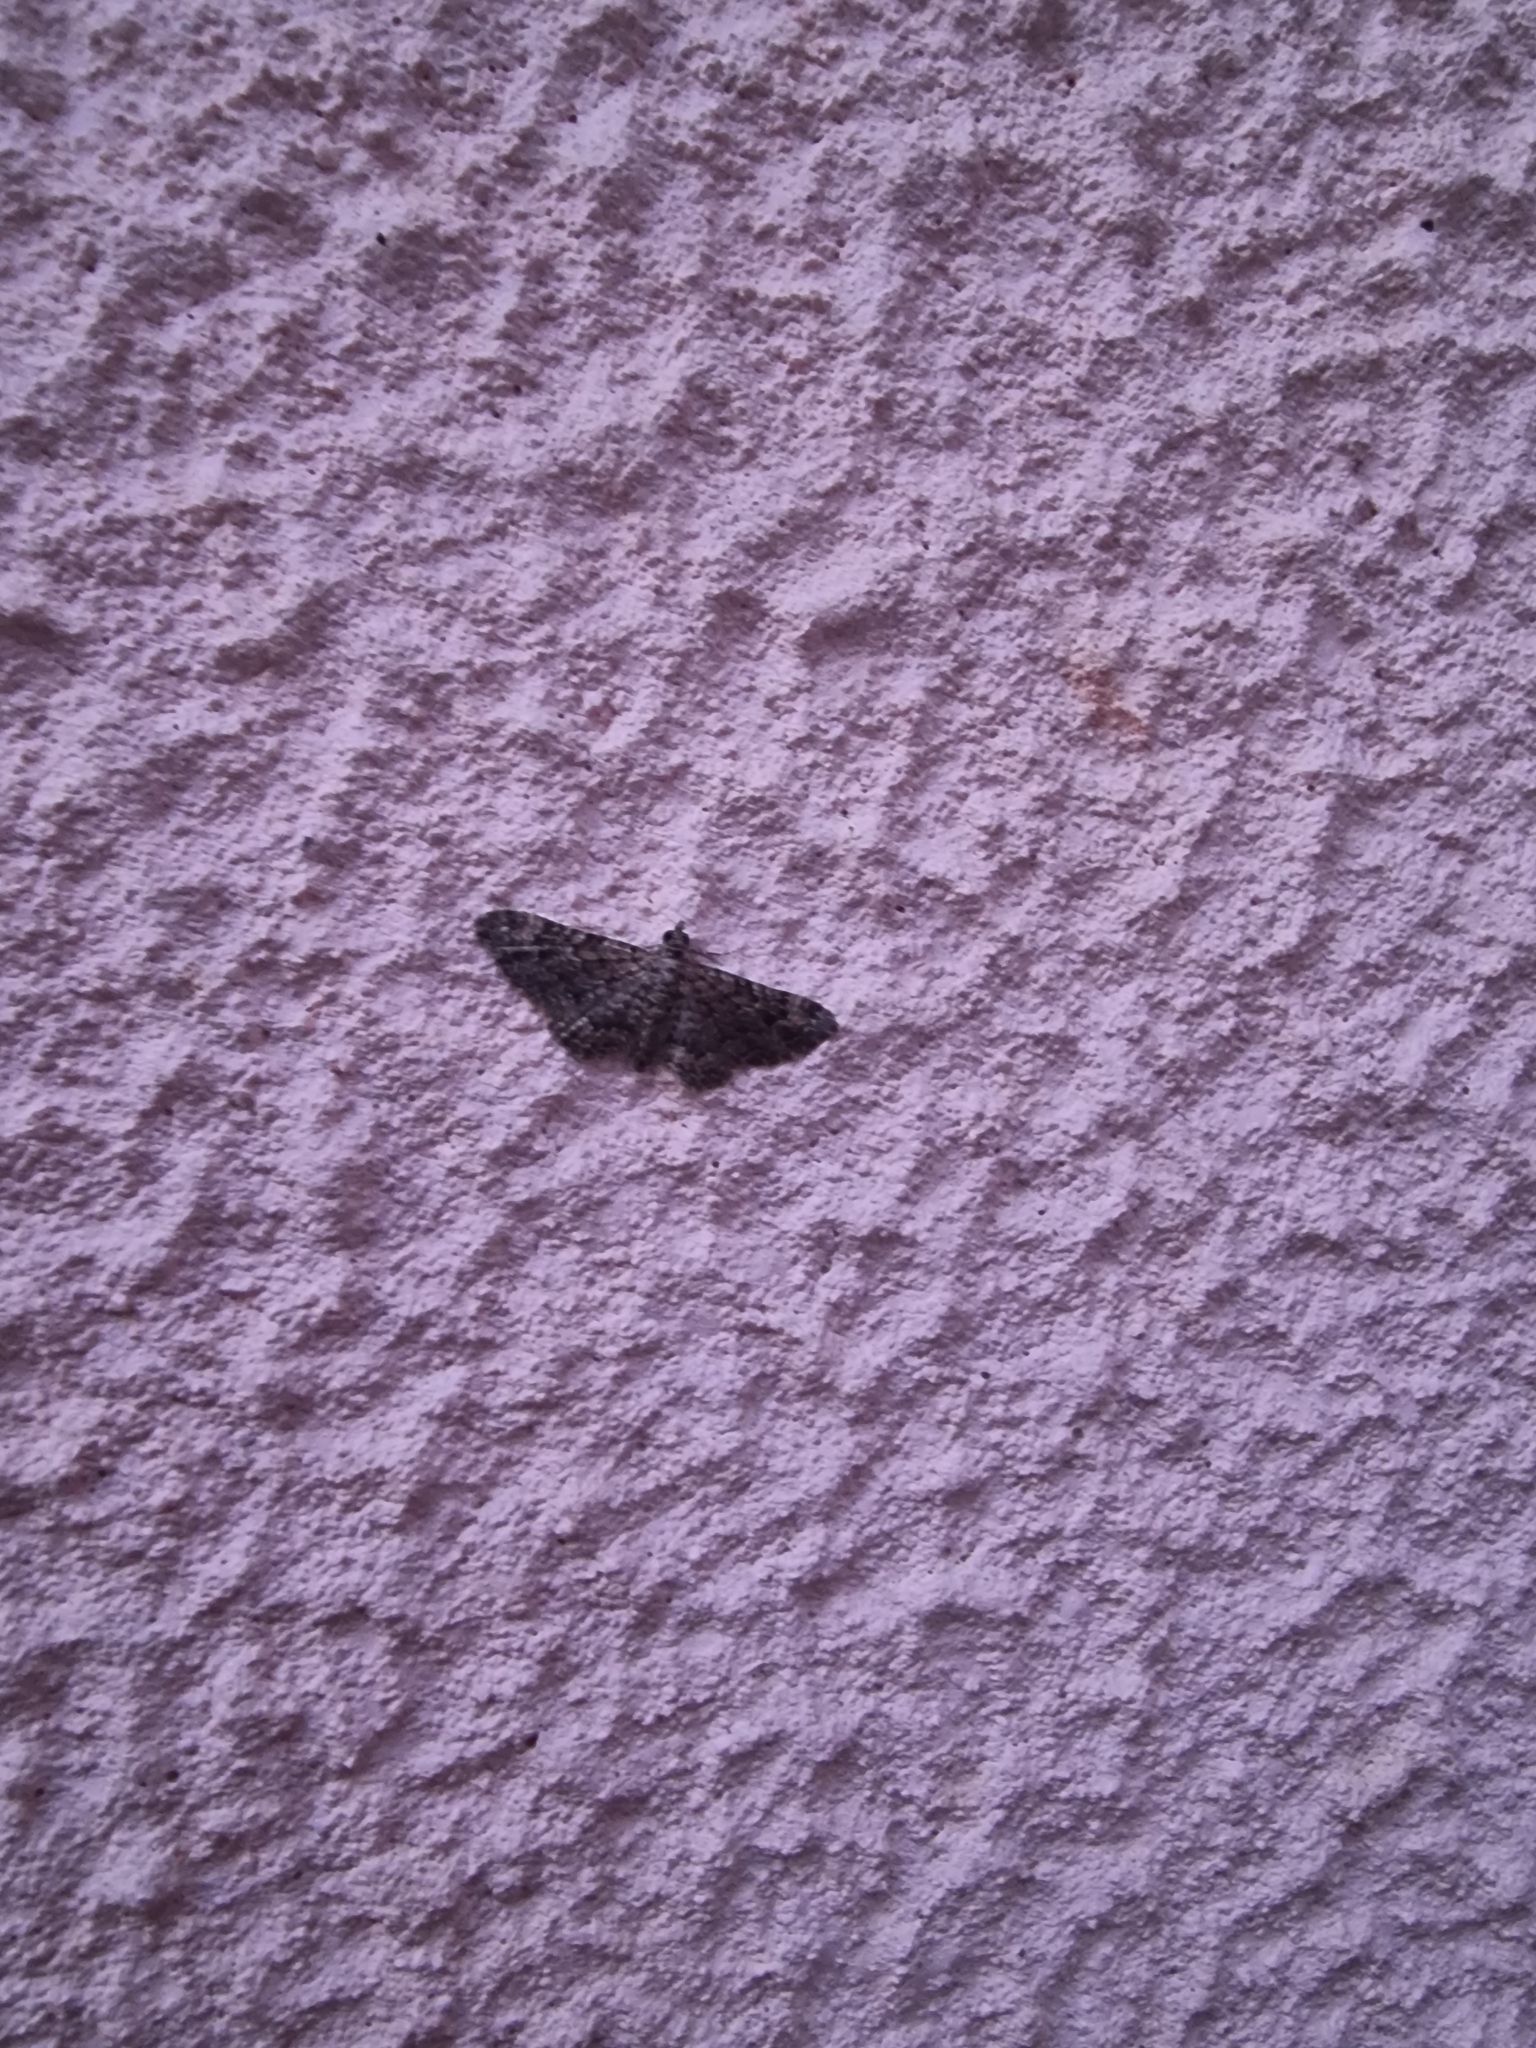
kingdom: Animalia
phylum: Arthropoda
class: Insecta
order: Lepidoptera
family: Geometridae
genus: Gymnoscelis
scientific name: Gymnoscelis rufifasciata
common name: Double-striped pug
